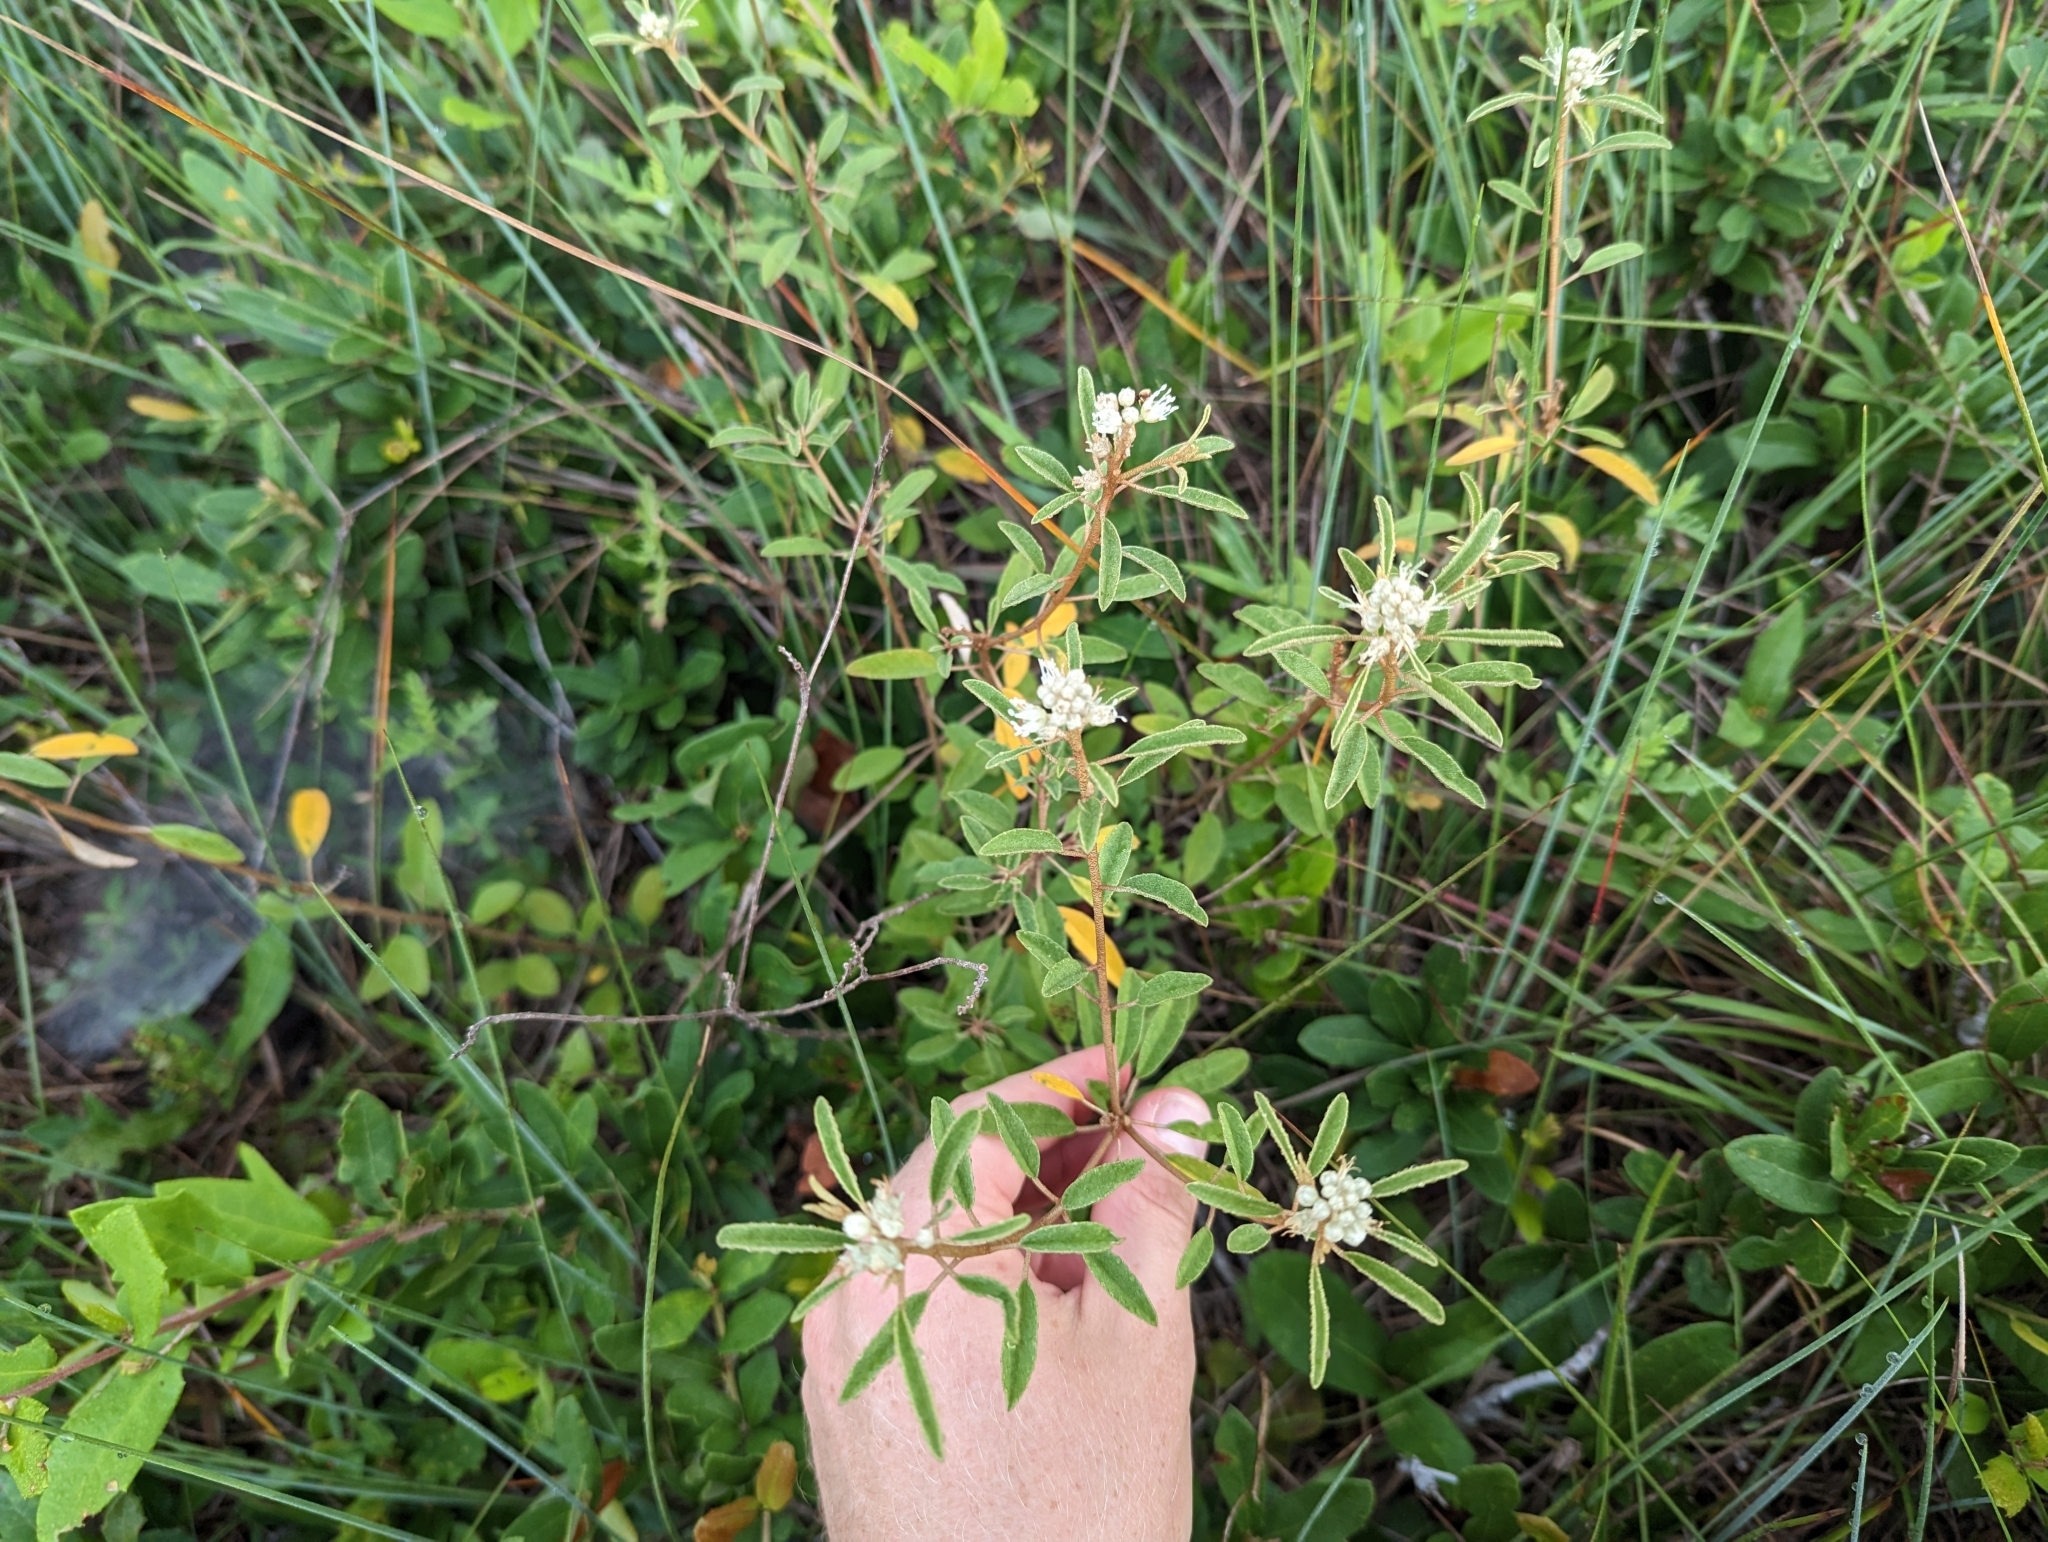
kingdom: Plantae
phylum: Tracheophyta
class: Magnoliopsida
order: Malpighiales
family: Euphorbiaceae
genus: Croton
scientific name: Croton argyranthemus
